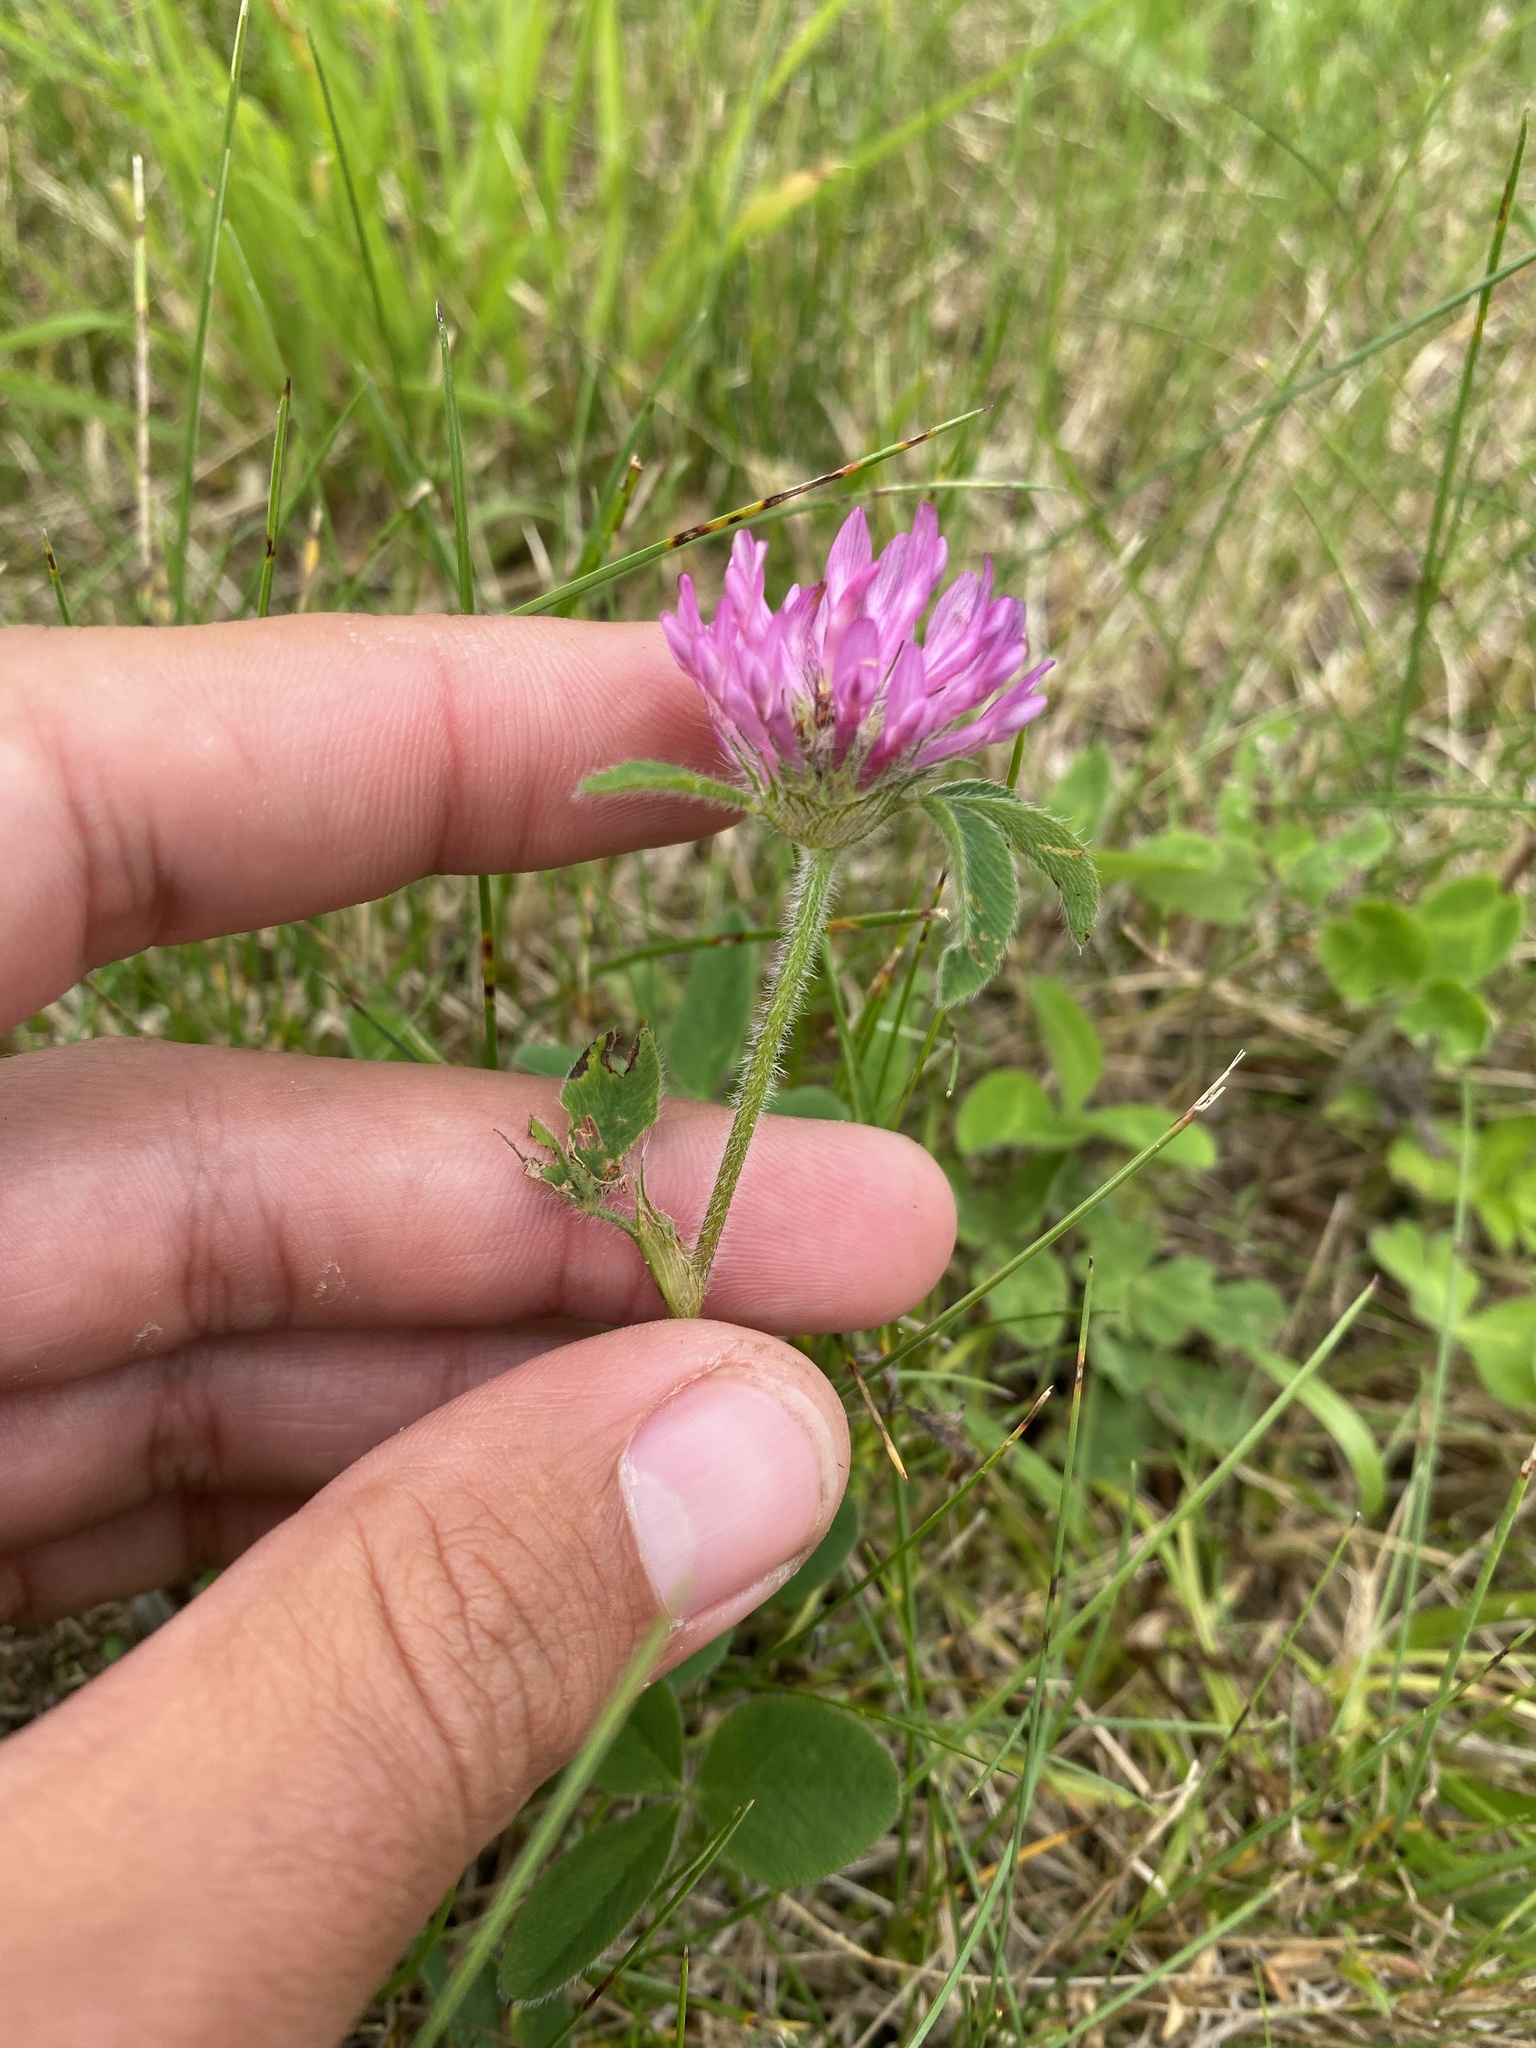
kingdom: Plantae
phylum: Tracheophyta
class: Magnoliopsida
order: Fabales
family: Fabaceae
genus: Trifolium
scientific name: Trifolium pratense
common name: Red clover
